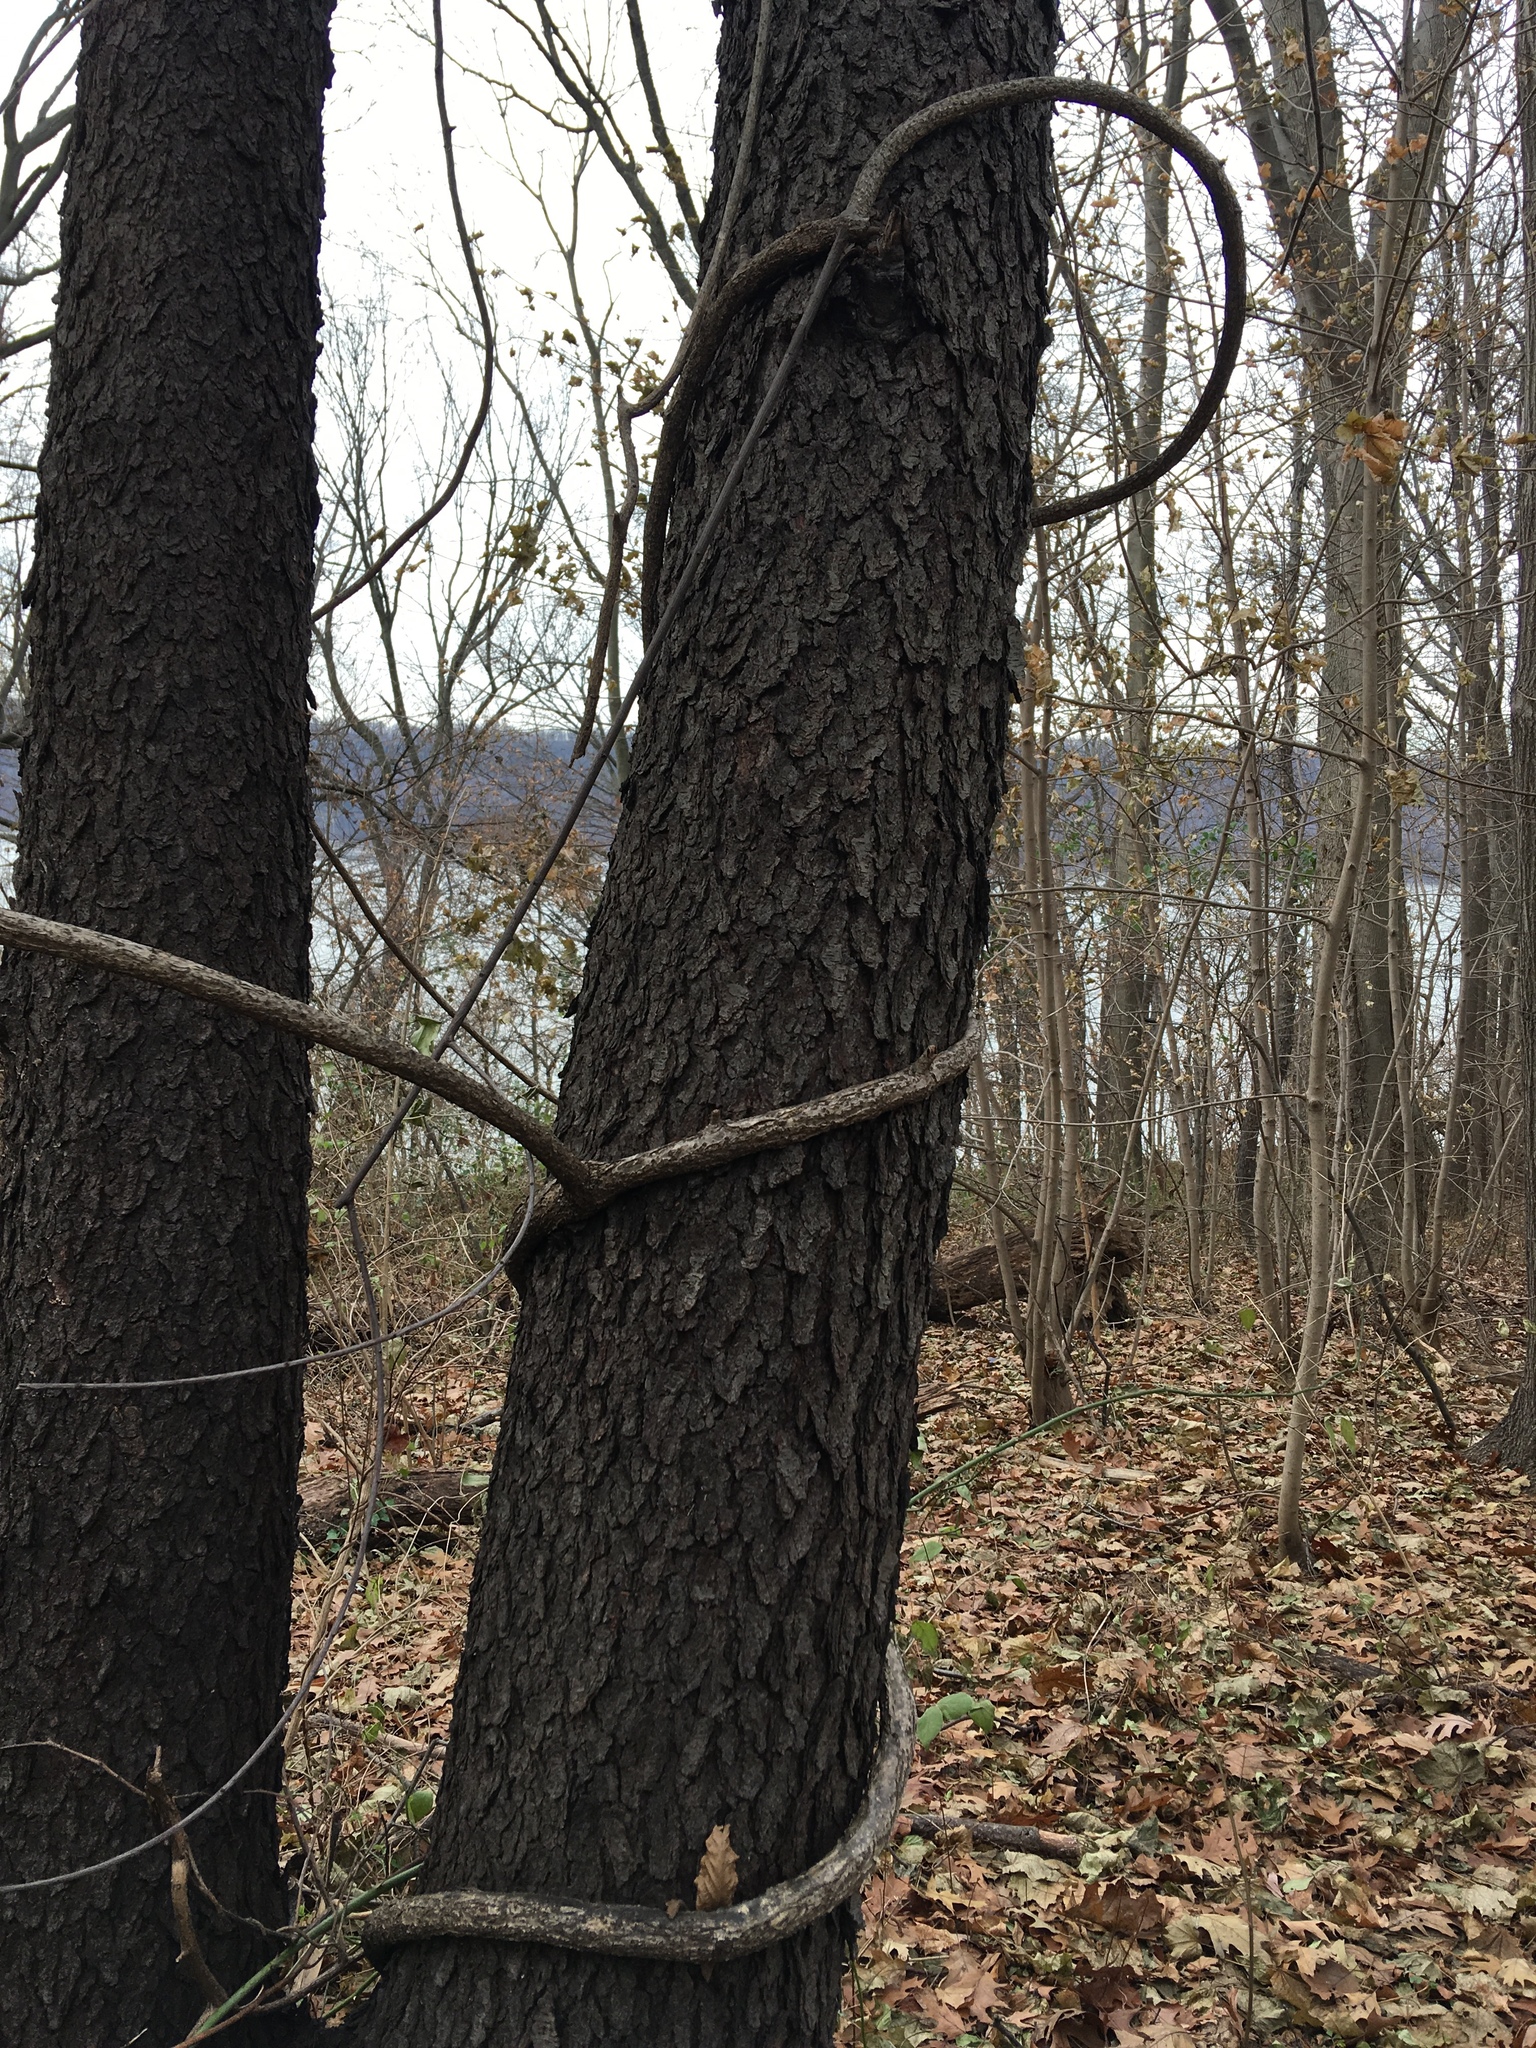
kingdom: Plantae
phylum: Tracheophyta
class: Magnoliopsida
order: Celastrales
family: Celastraceae
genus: Celastrus
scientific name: Celastrus orbiculatus
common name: Oriental bittersweet
